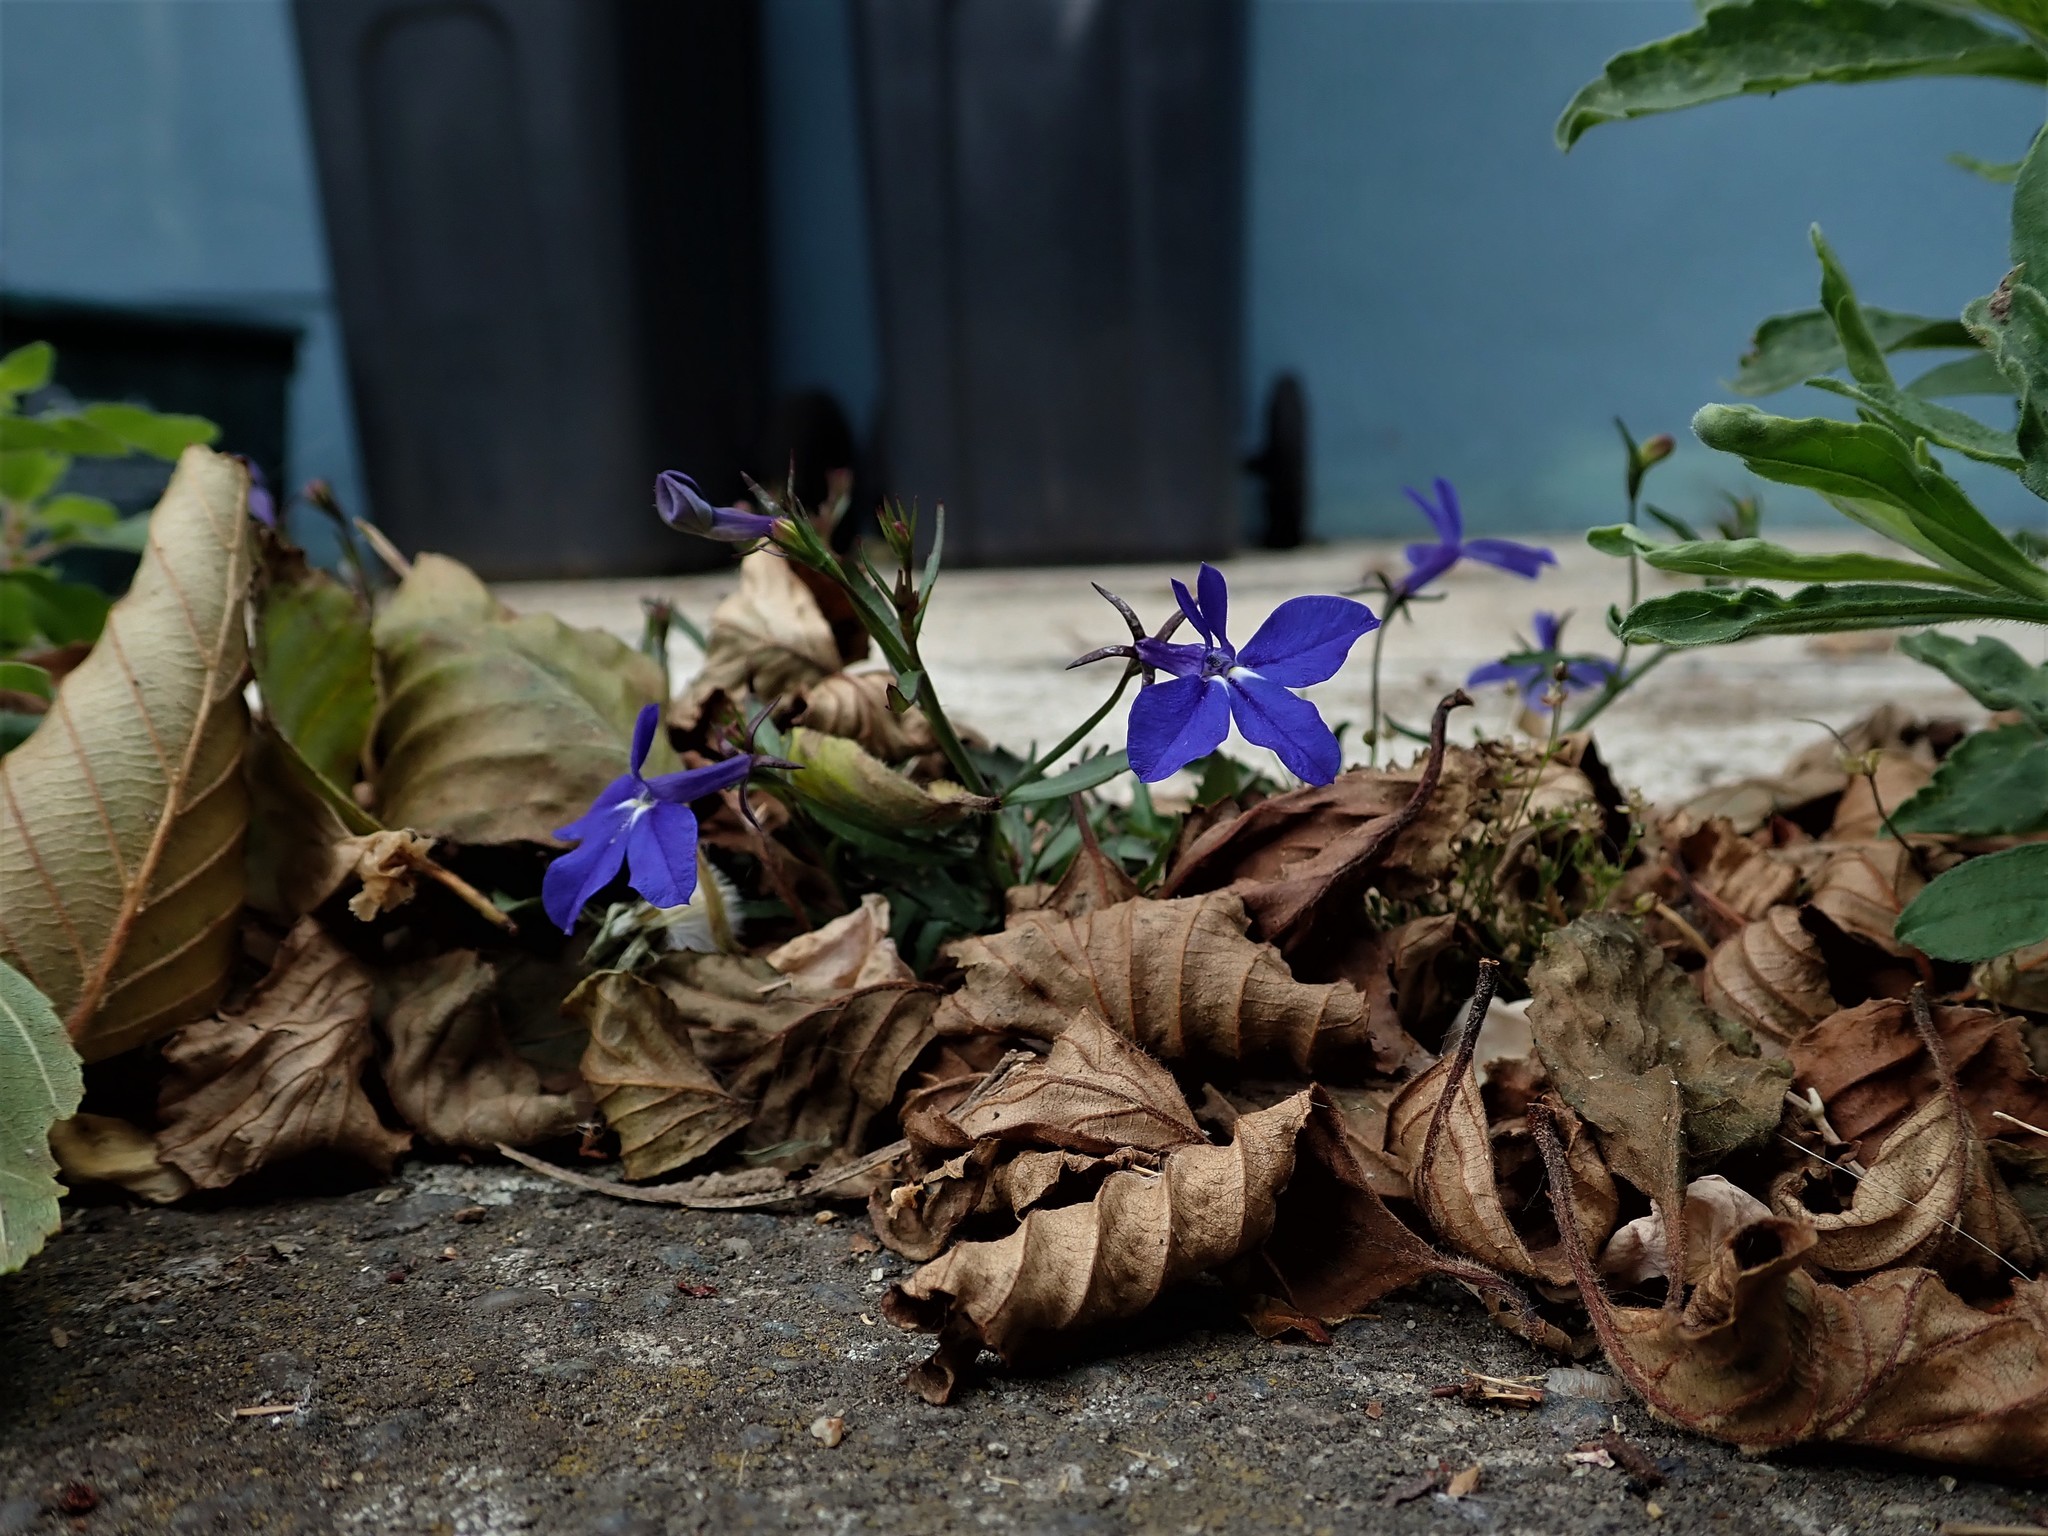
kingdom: Plantae
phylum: Tracheophyta
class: Magnoliopsida
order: Asterales
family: Campanulaceae
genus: Lobelia
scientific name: Lobelia erinus
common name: Edging lobelia
